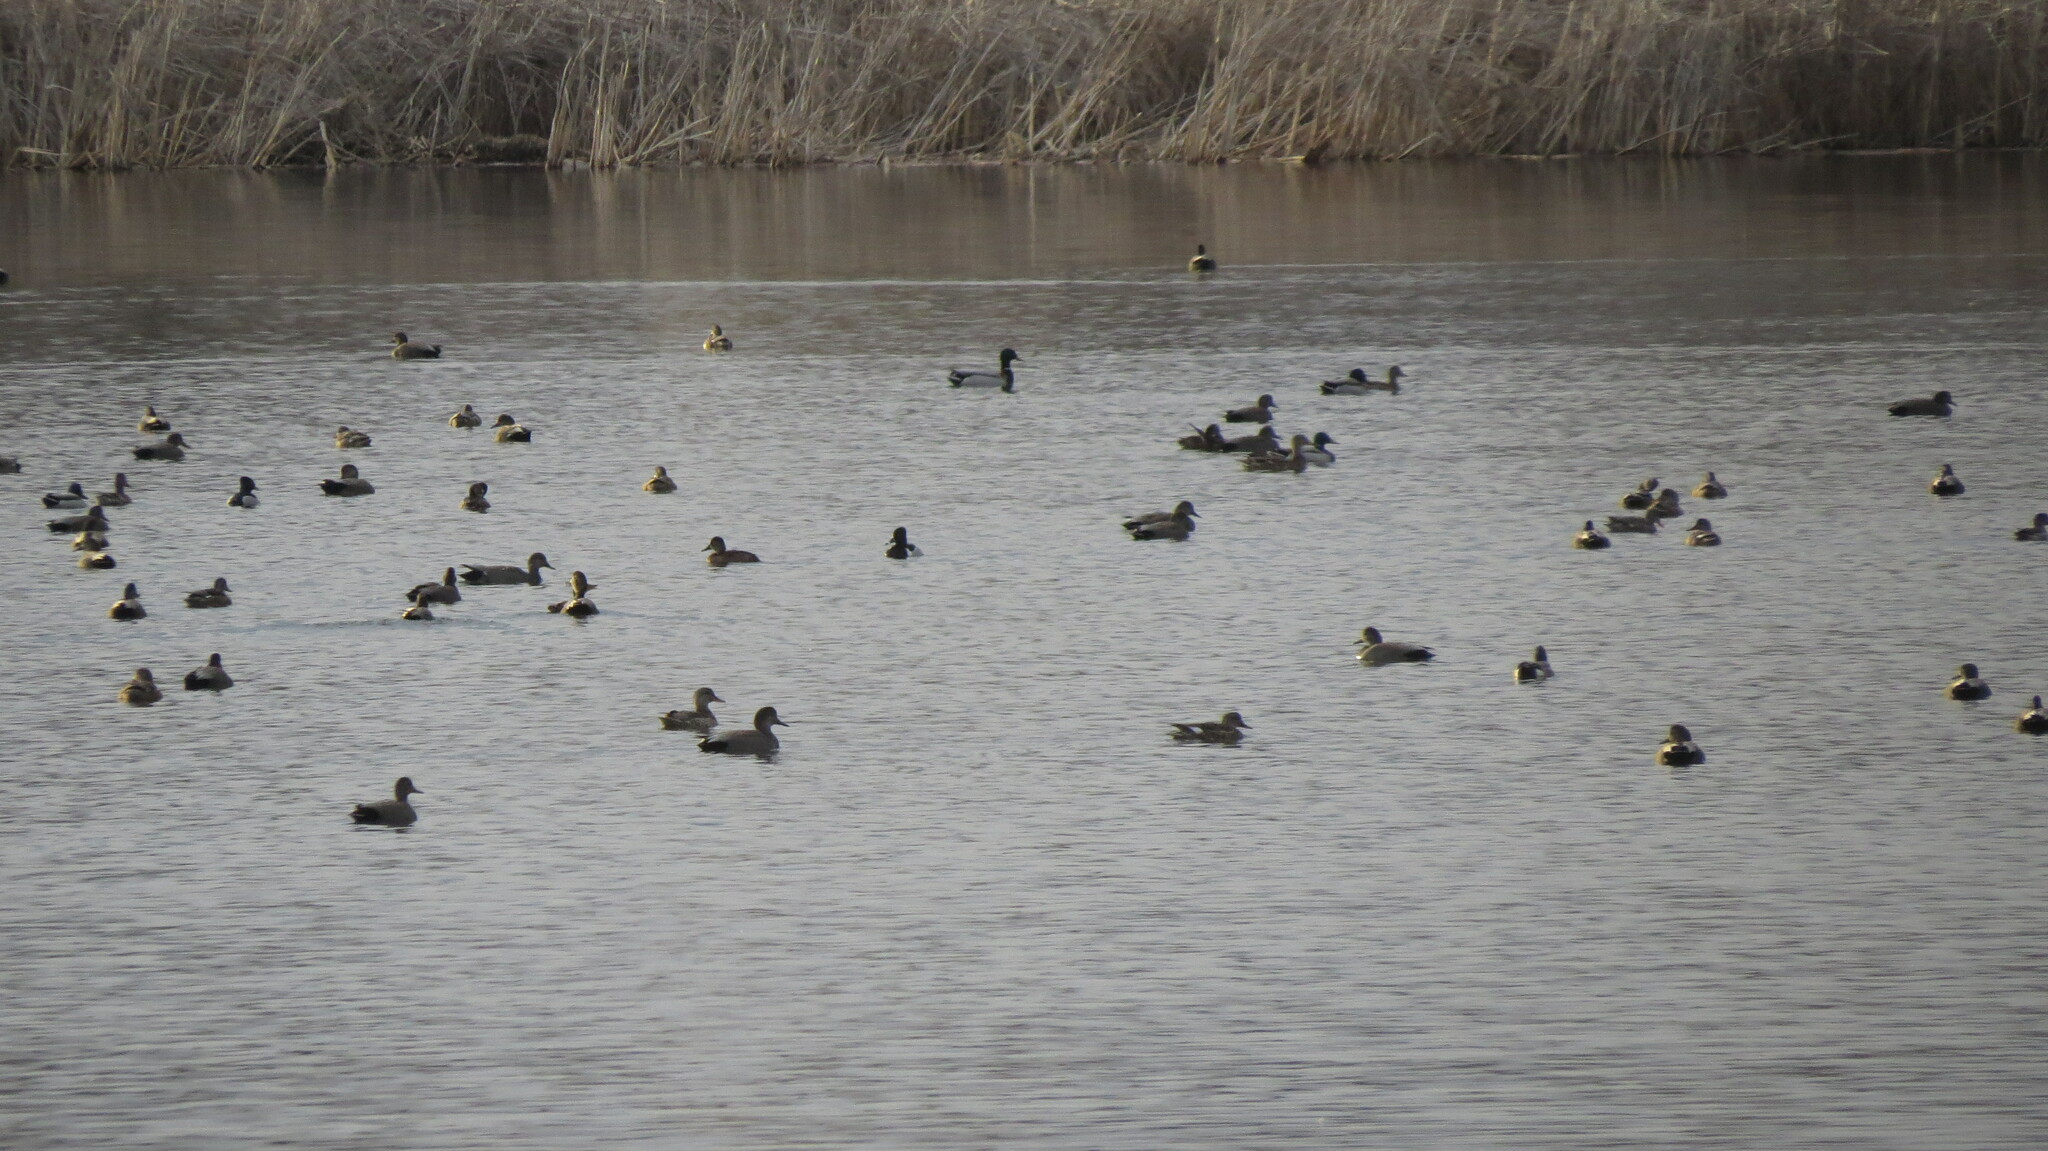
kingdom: Animalia
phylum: Chordata
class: Aves
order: Anseriformes
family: Anatidae
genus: Mareca
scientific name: Mareca strepera
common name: Gadwall
